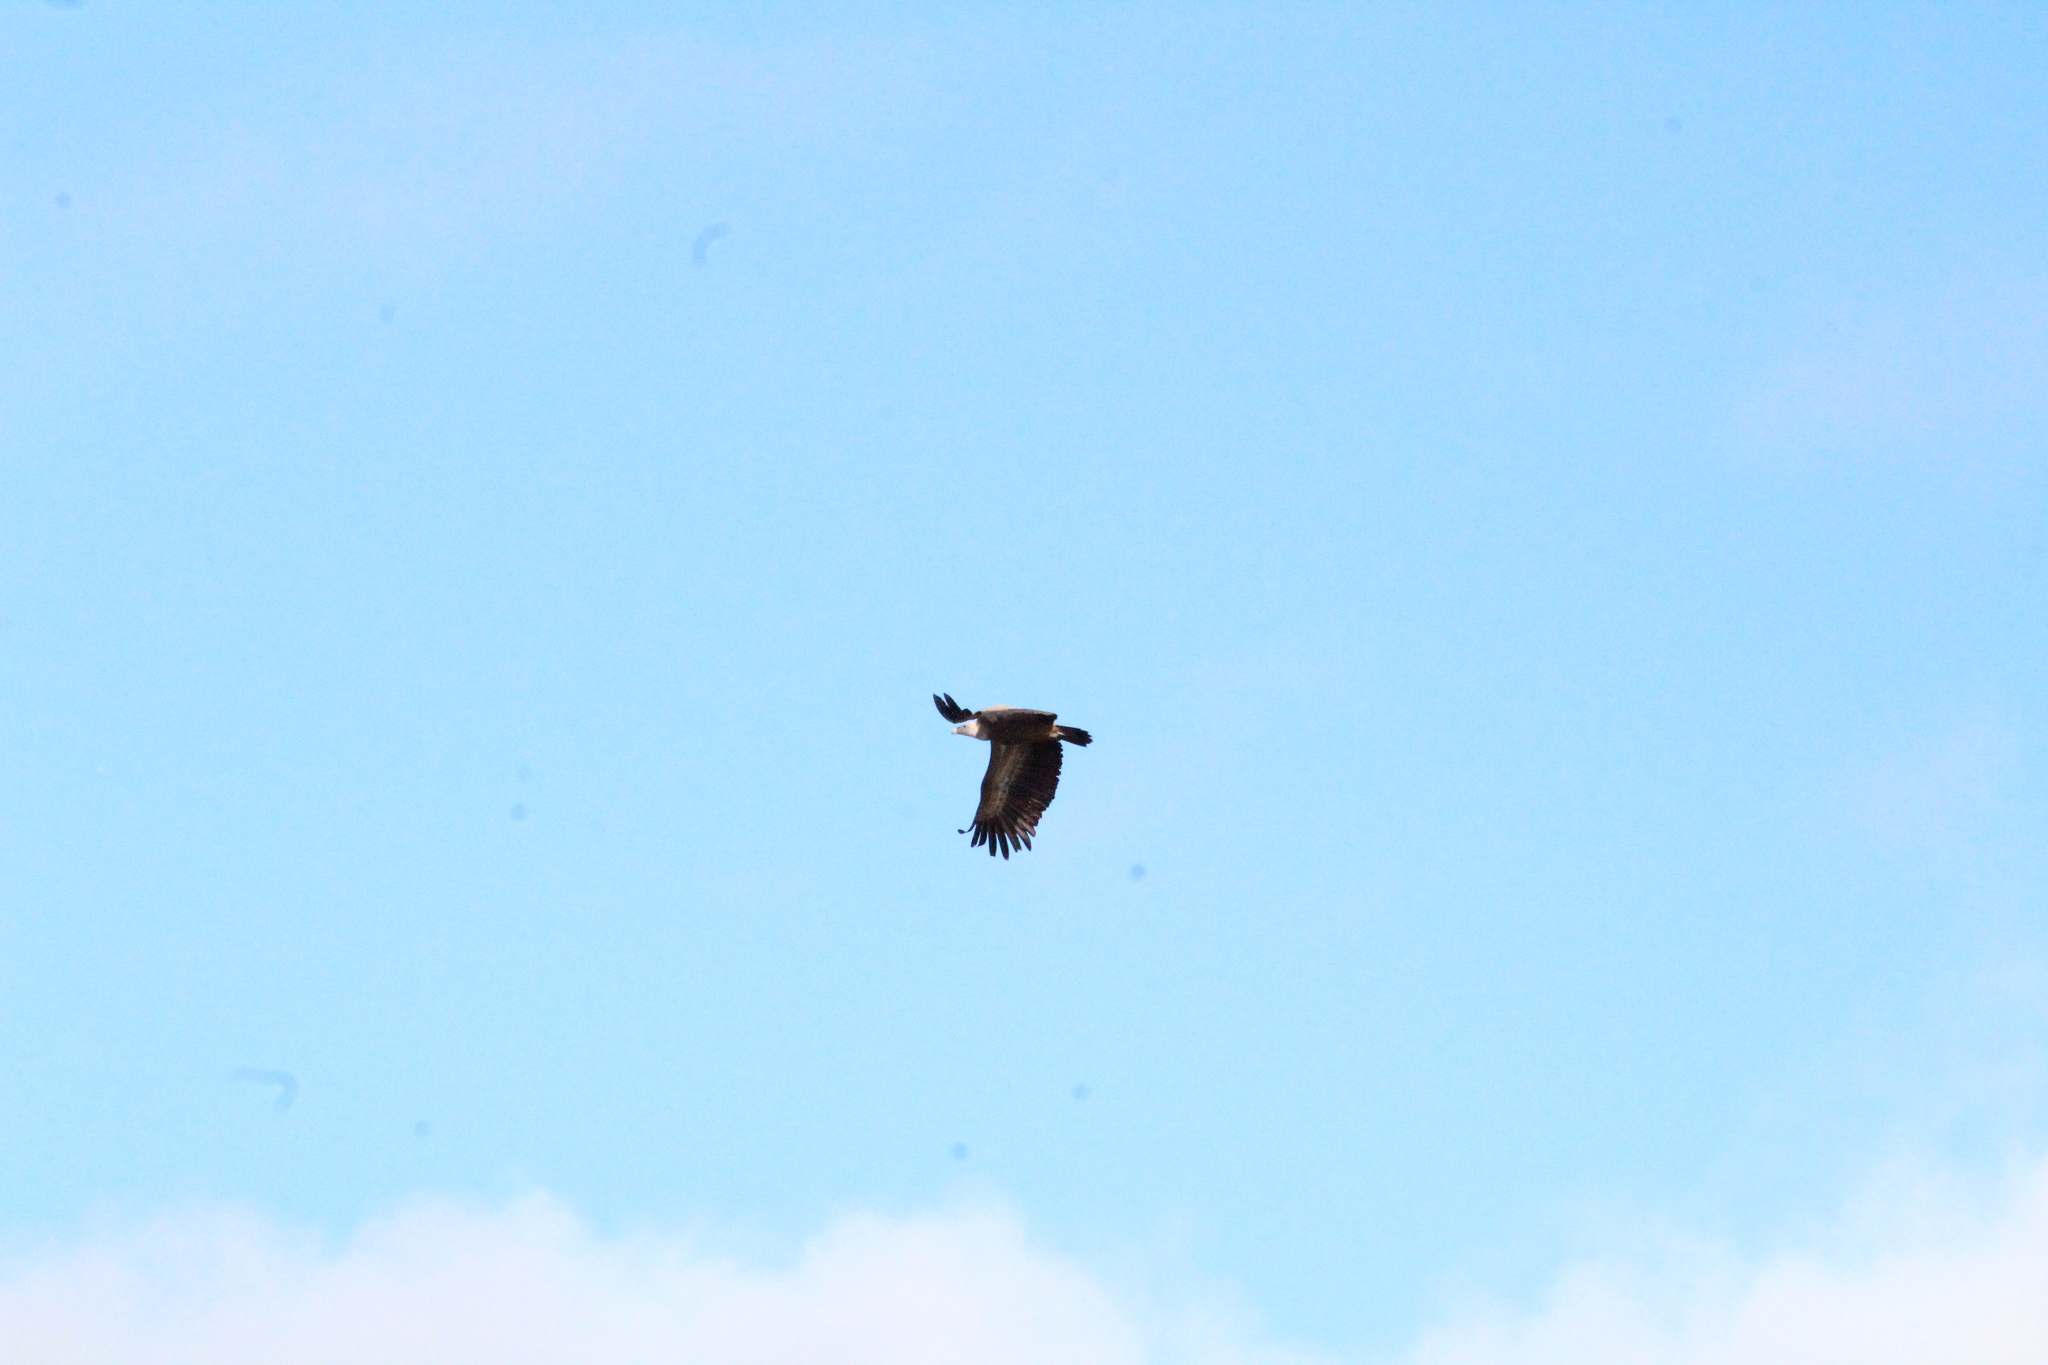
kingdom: Animalia
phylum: Chordata
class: Aves
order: Accipitriformes
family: Accipitridae
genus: Gyps
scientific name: Gyps fulvus
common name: Griffon vulture
